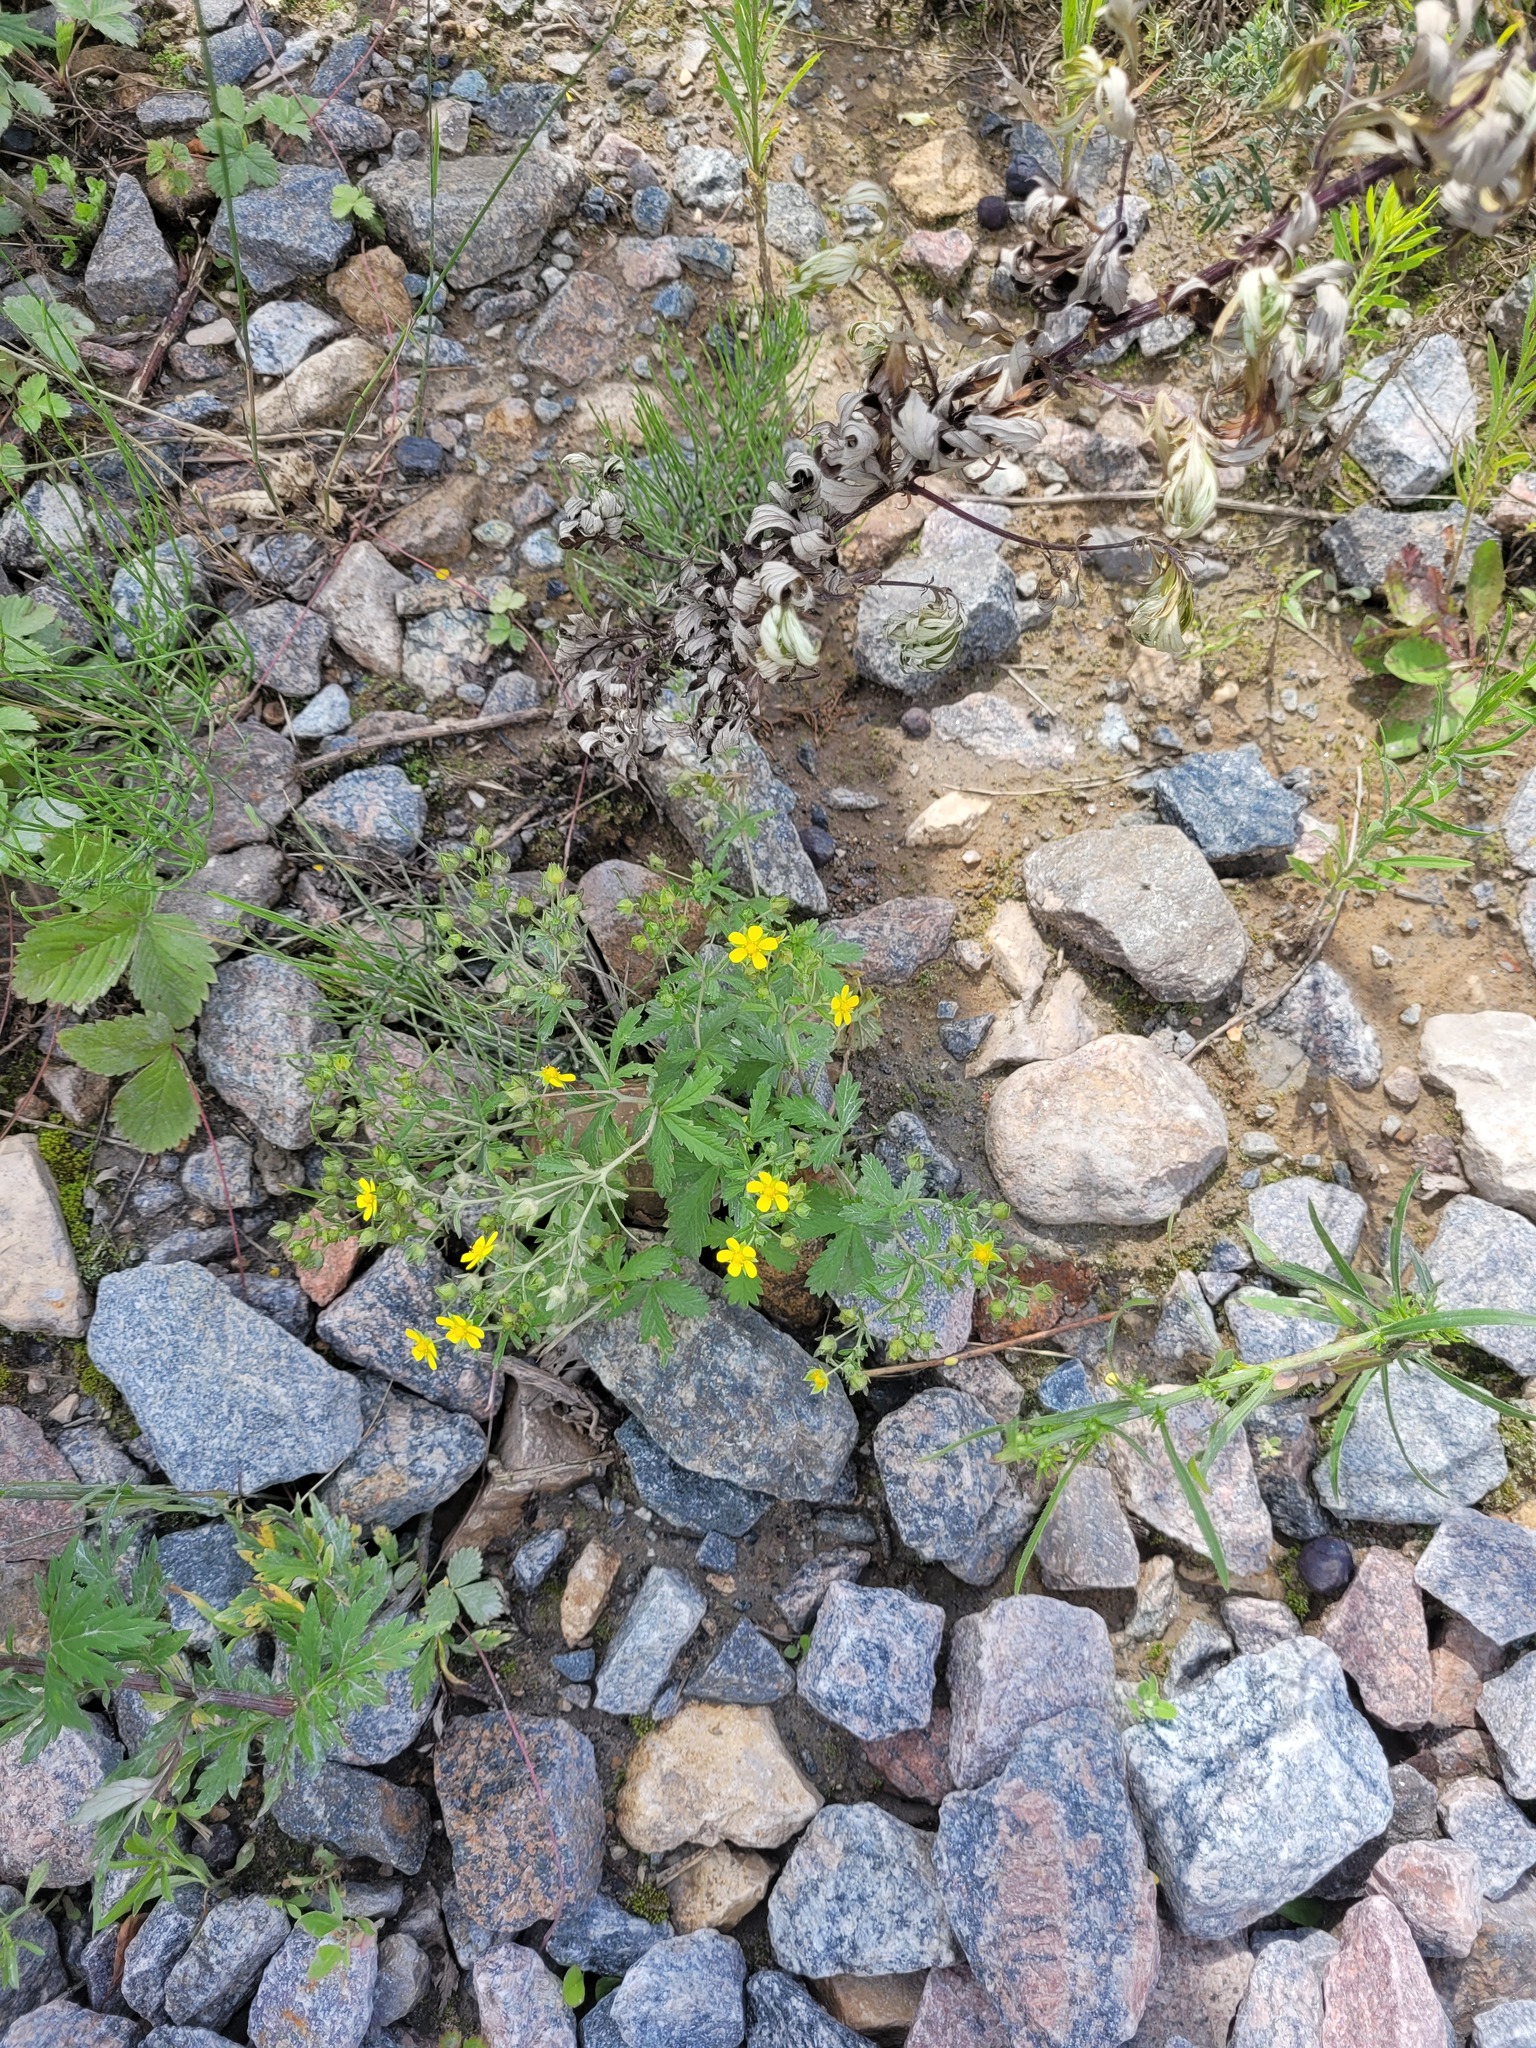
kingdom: Plantae
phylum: Tracheophyta
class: Magnoliopsida
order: Rosales
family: Rosaceae
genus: Potentilla
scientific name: Potentilla intermedia
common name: Downy cinquefoil
